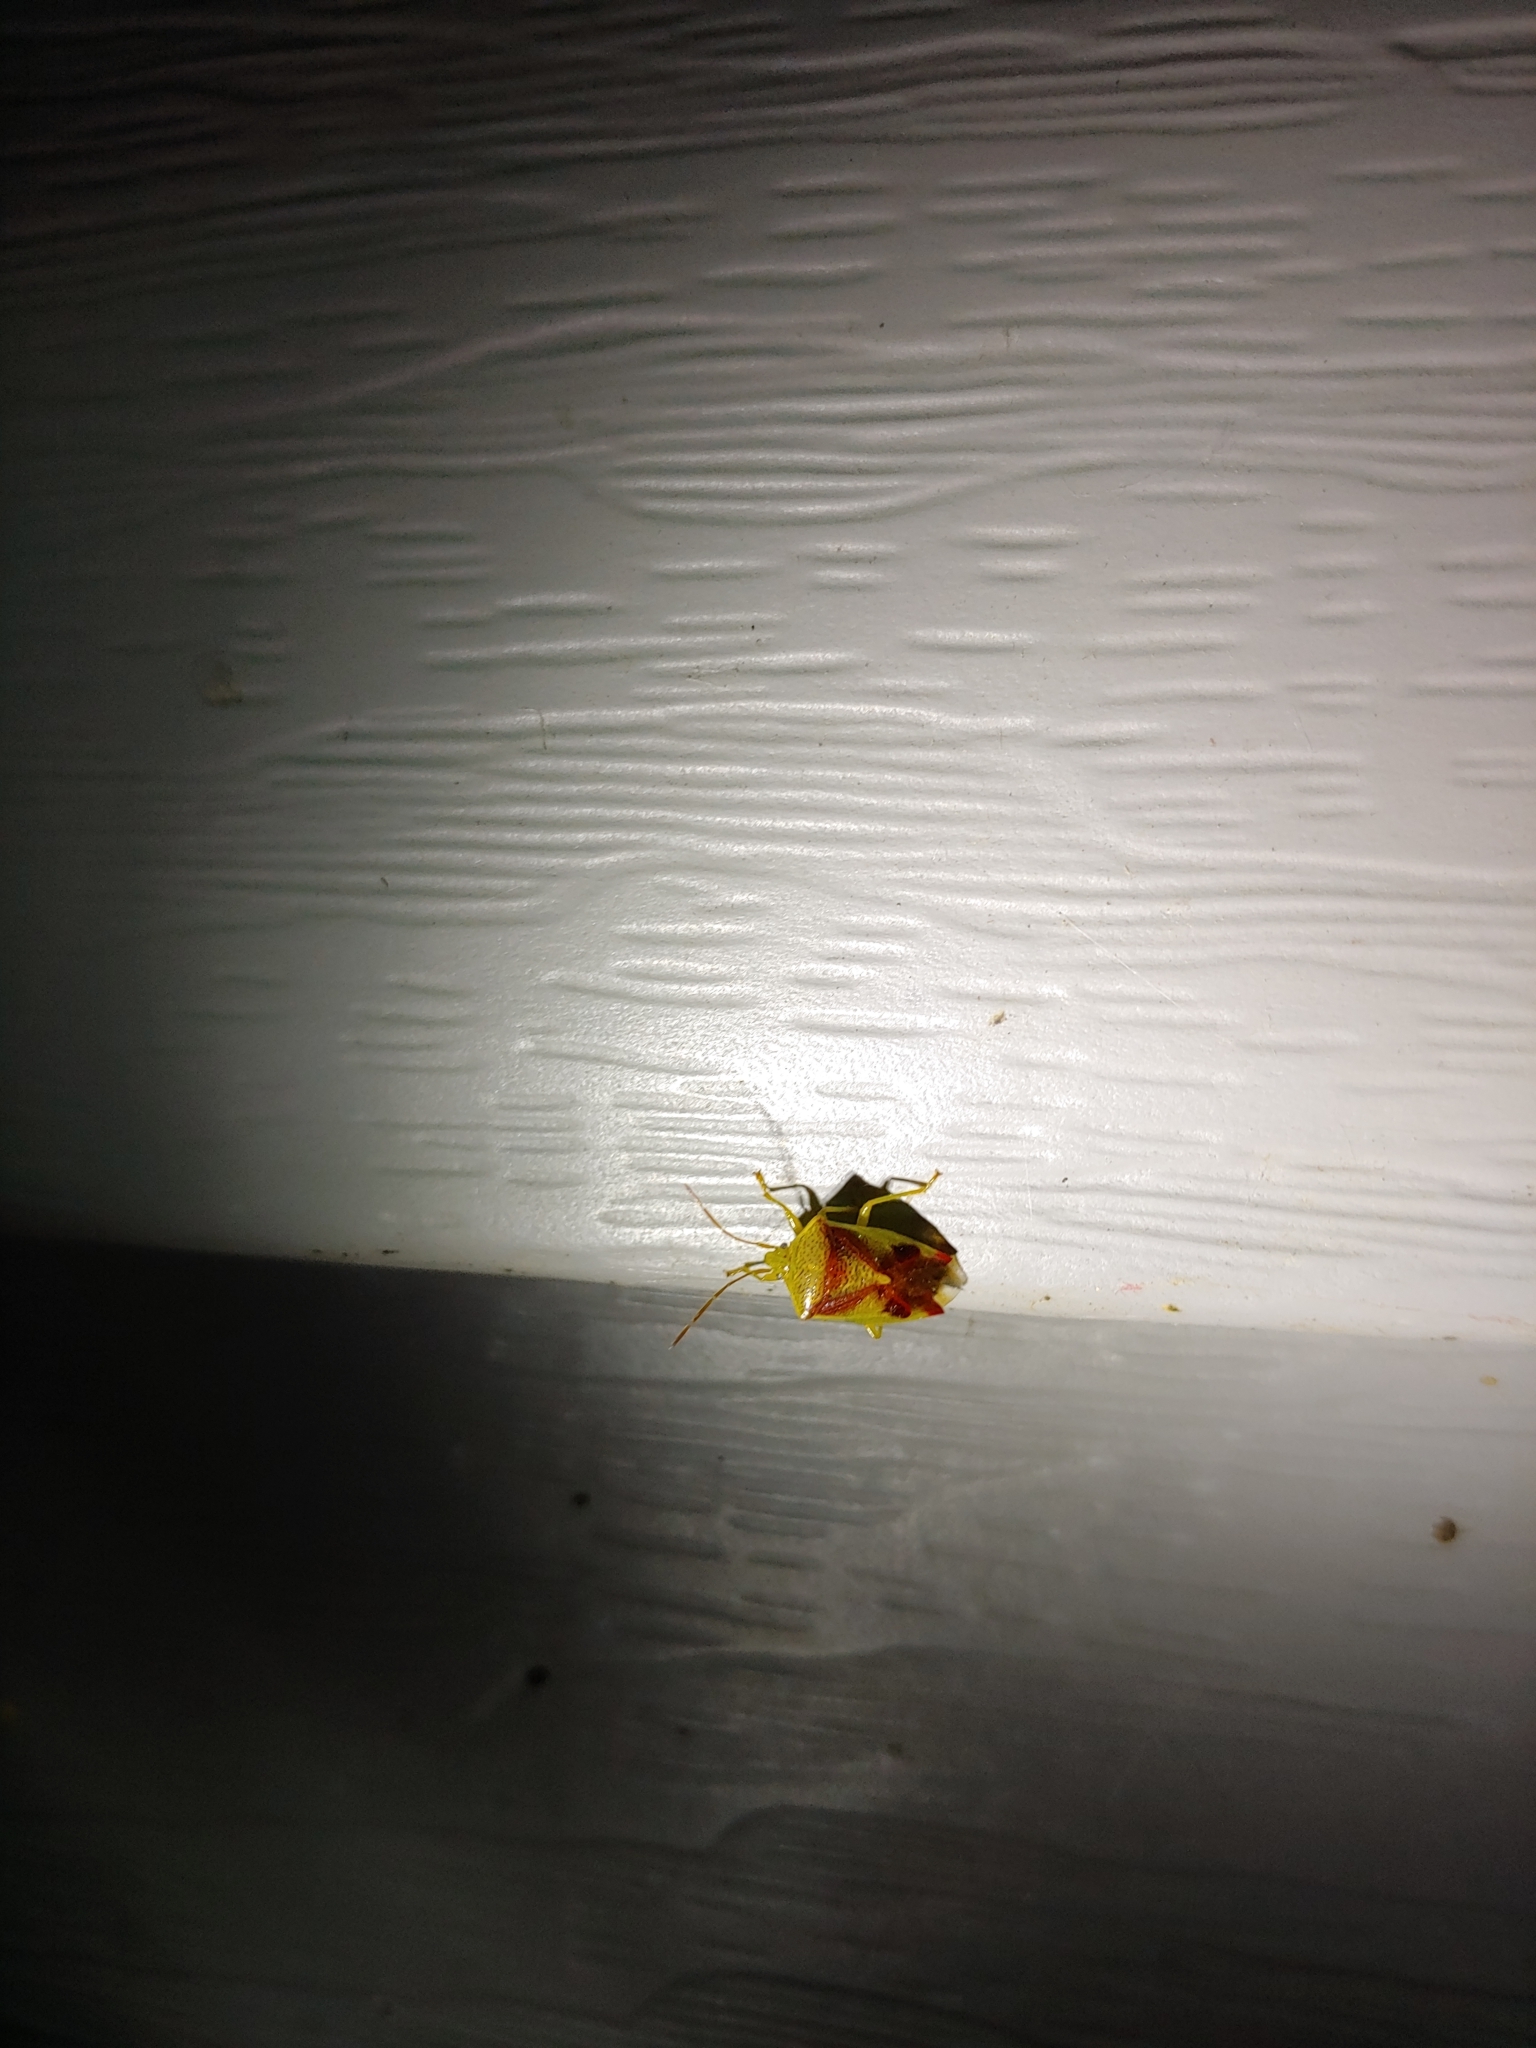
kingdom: Animalia
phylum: Arthropoda
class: Insecta
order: Hemiptera
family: Acanthosomatidae
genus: Elasmostethus
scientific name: Elasmostethus cruciatus
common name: Red-cross shield bug
